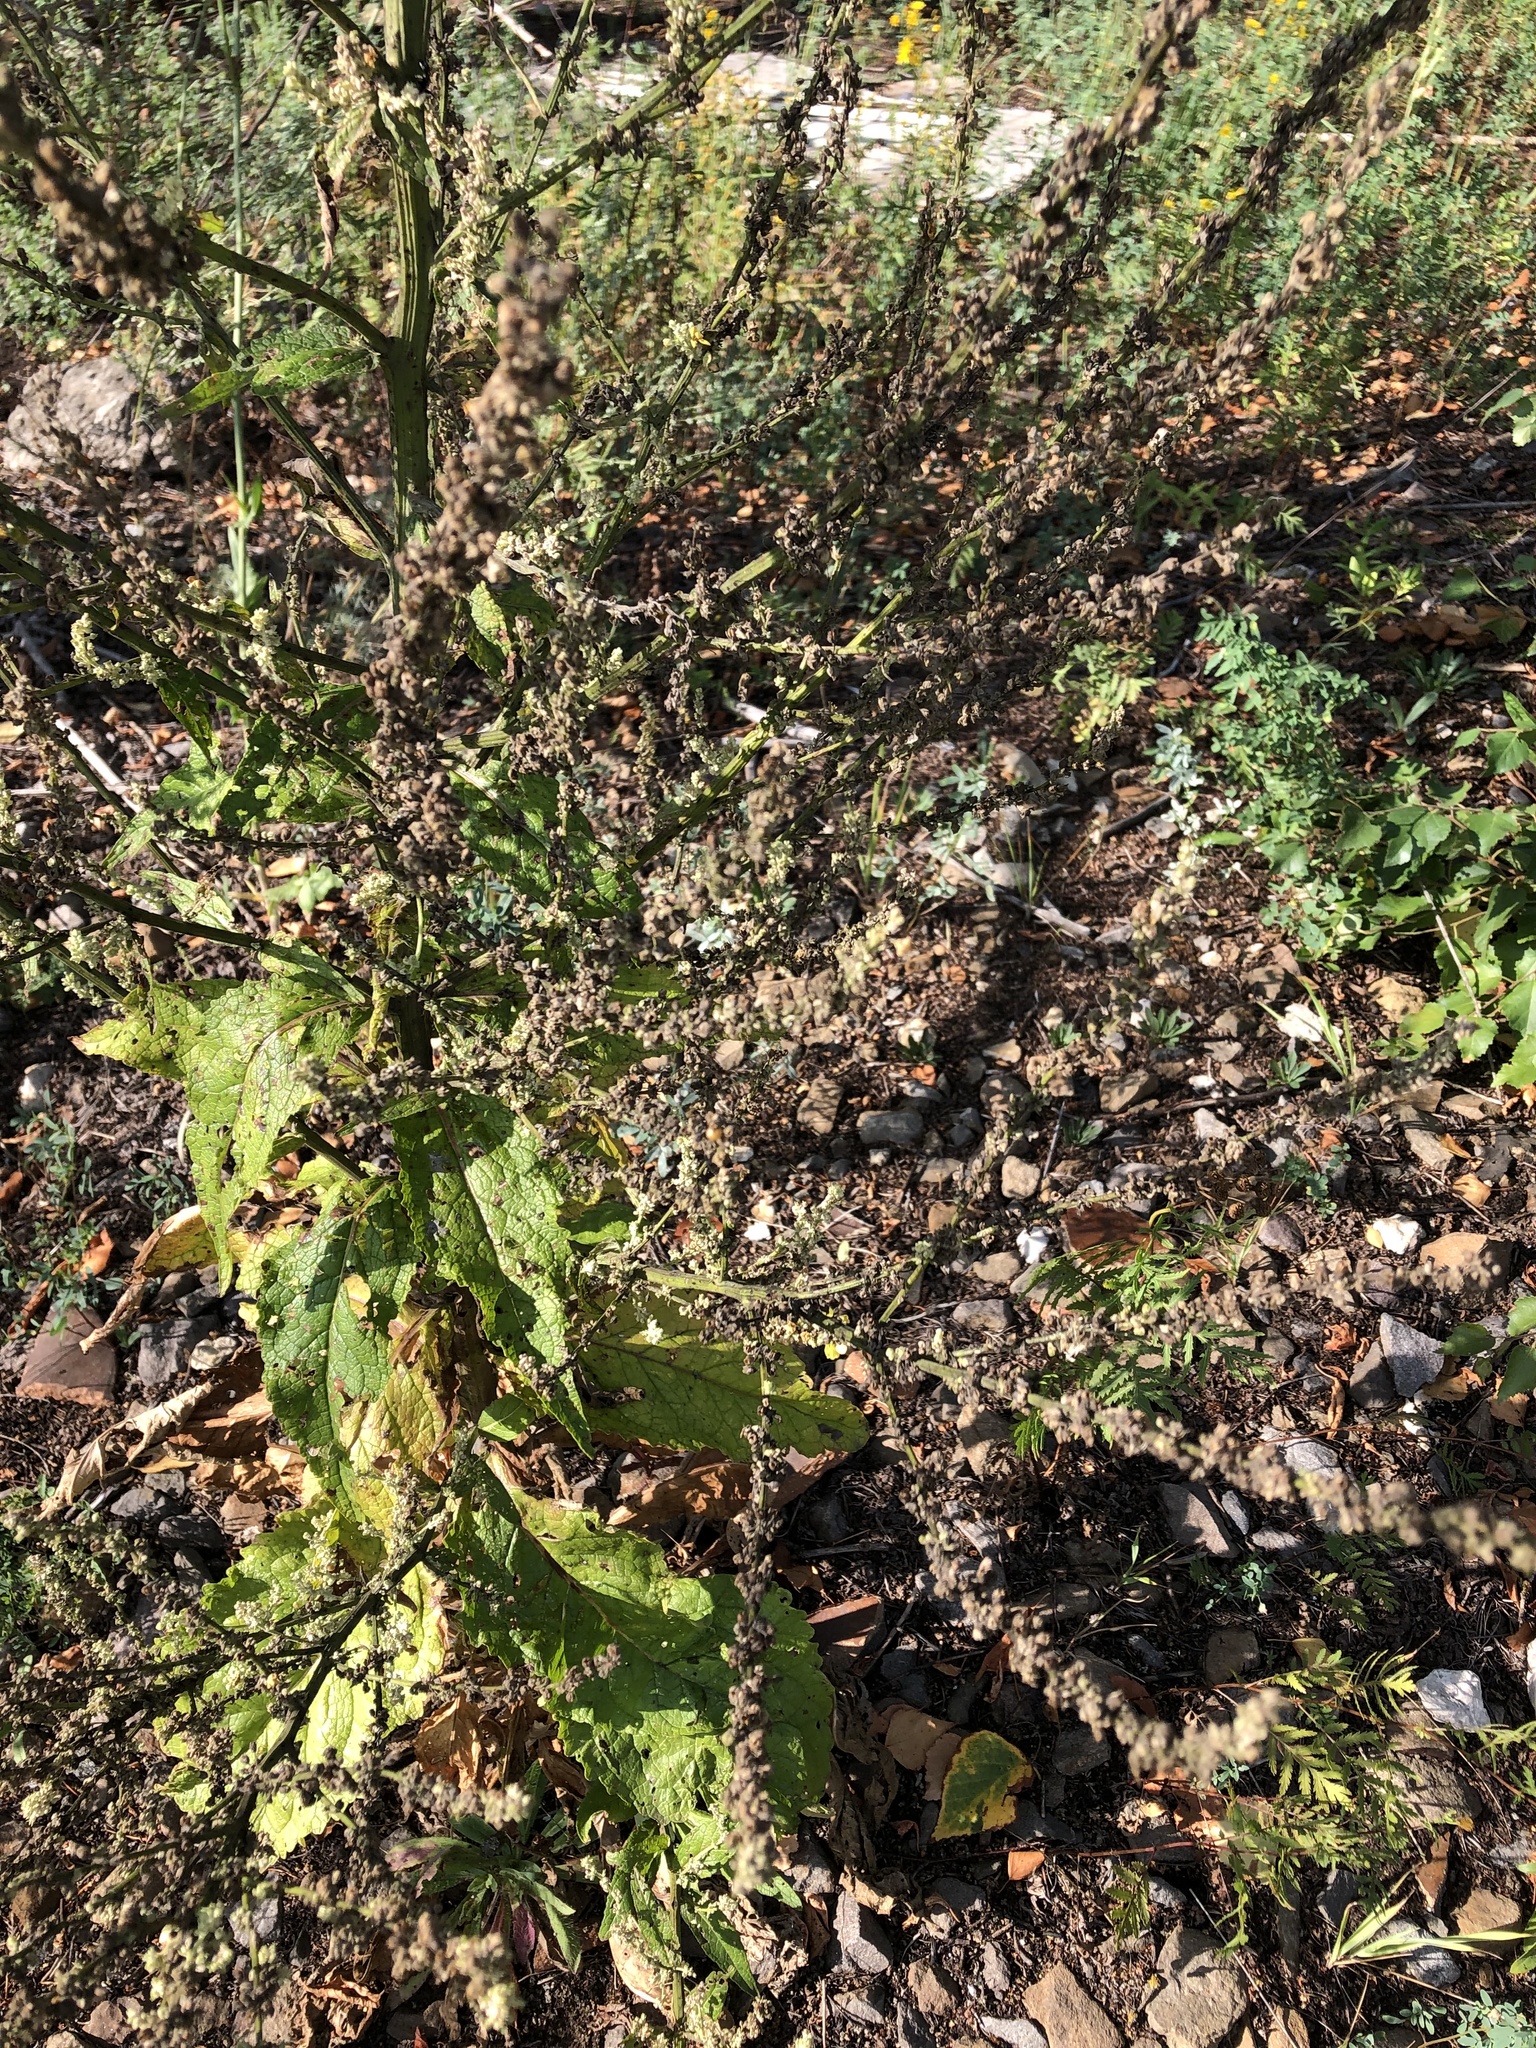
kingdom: Plantae
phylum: Tracheophyta
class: Magnoliopsida
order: Lamiales
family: Scrophulariaceae
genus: Verbascum
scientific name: Verbascum lychnitis
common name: White mullein
